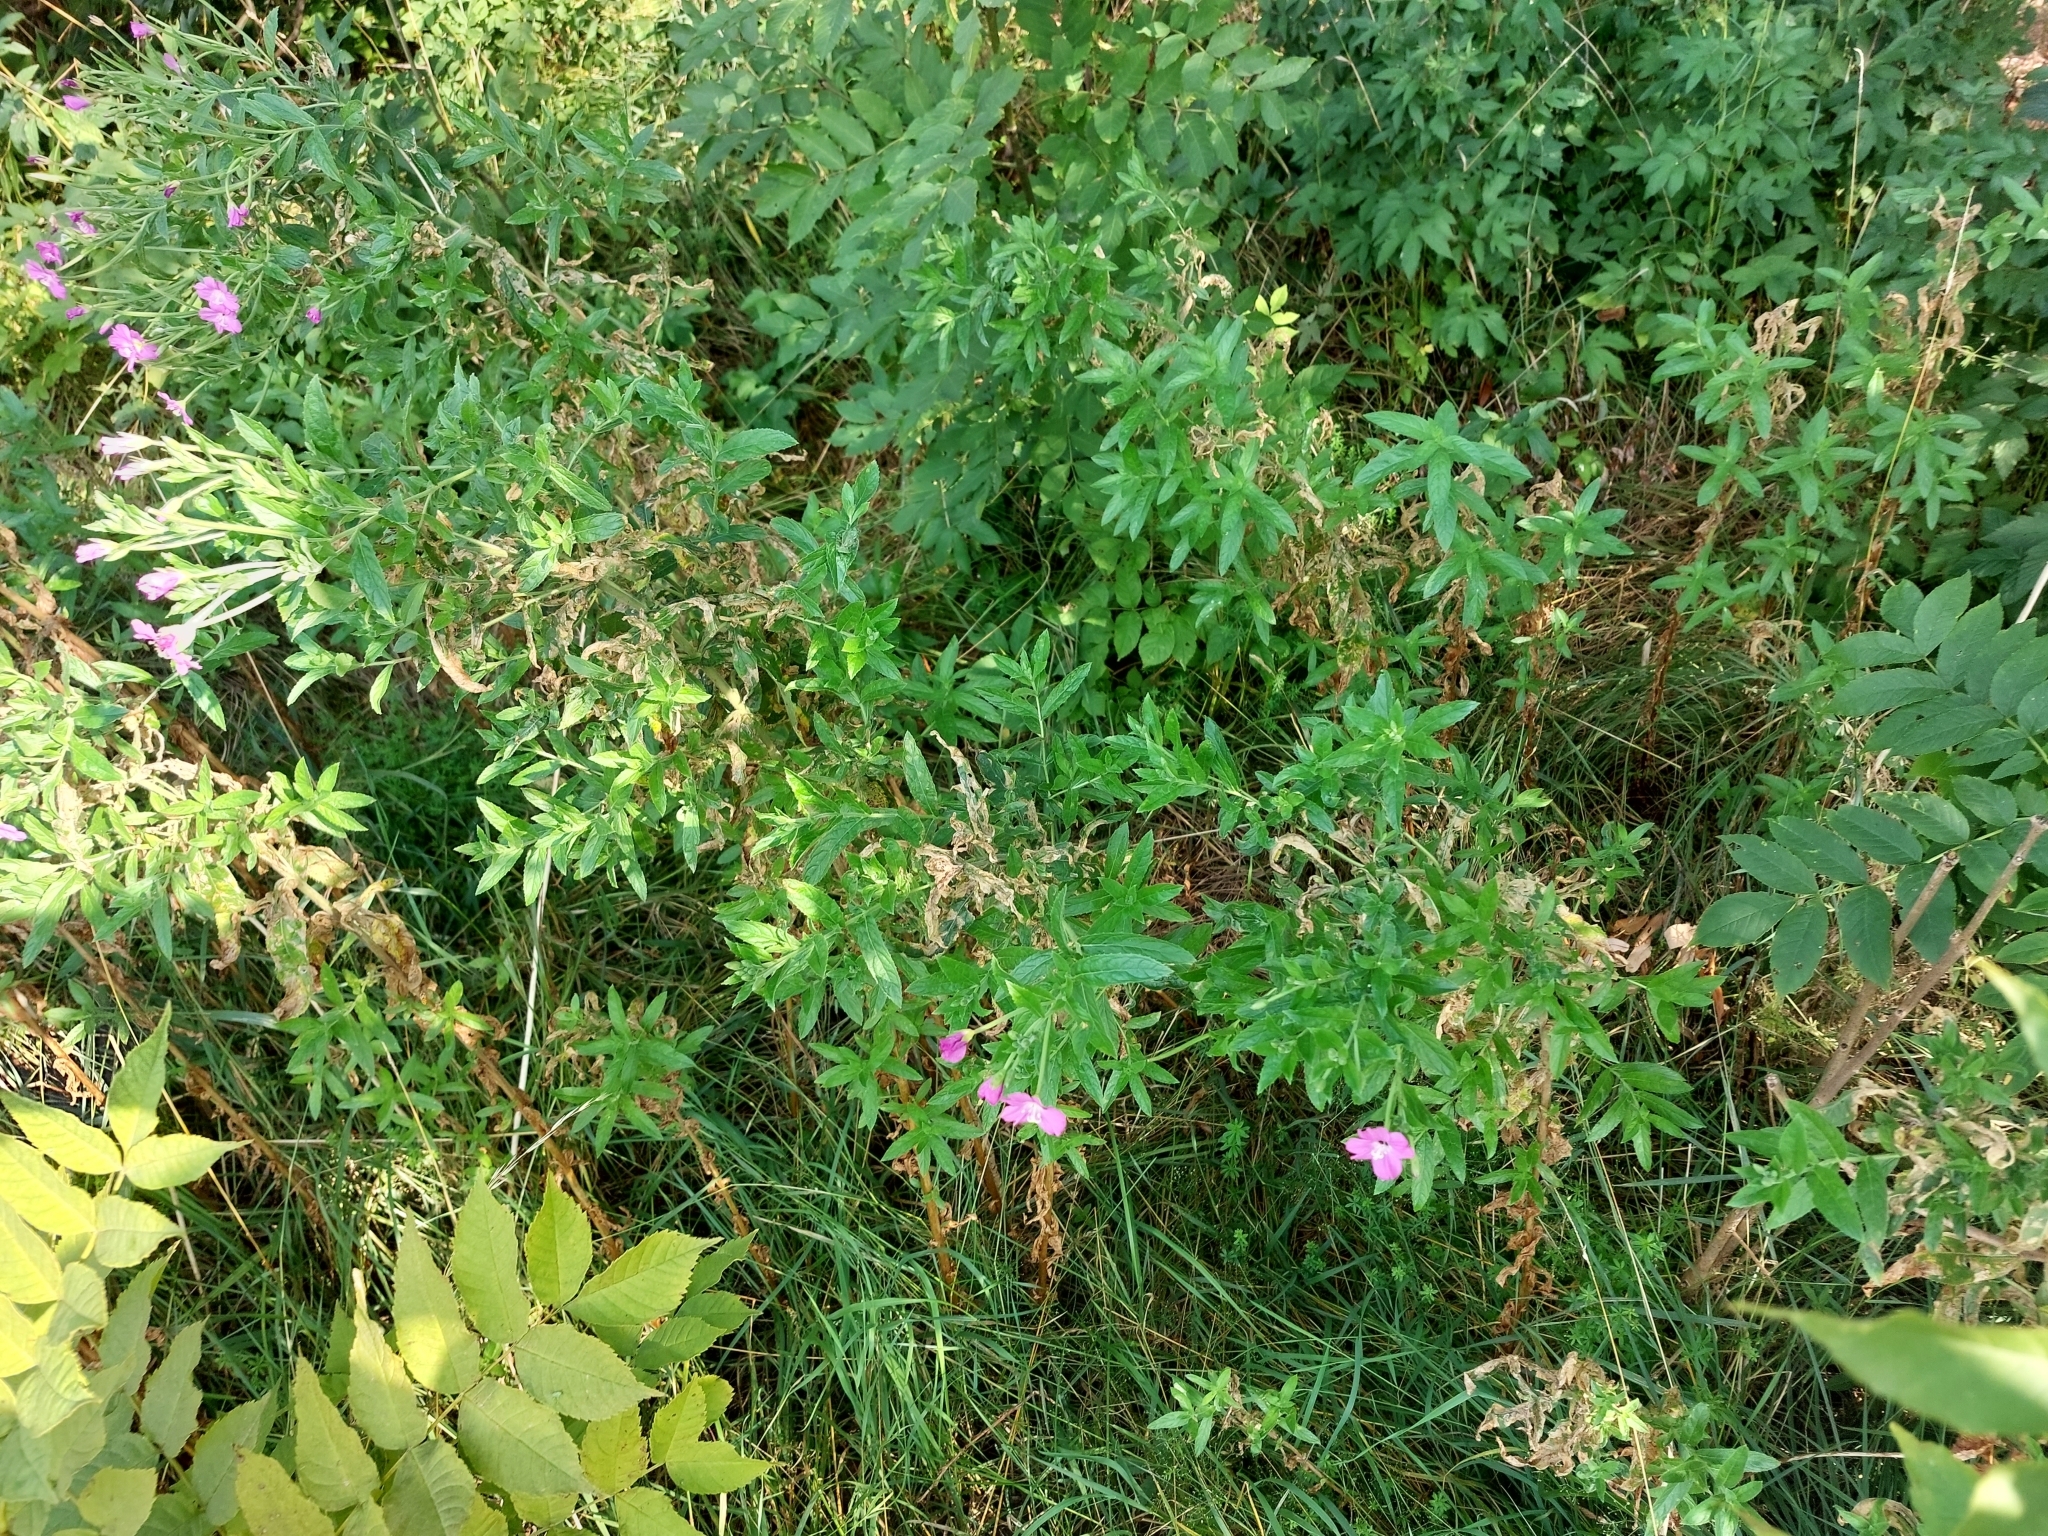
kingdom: Plantae
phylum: Tracheophyta
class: Magnoliopsida
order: Myrtales
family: Onagraceae
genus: Epilobium
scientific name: Epilobium hirsutum
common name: Great willowherb
